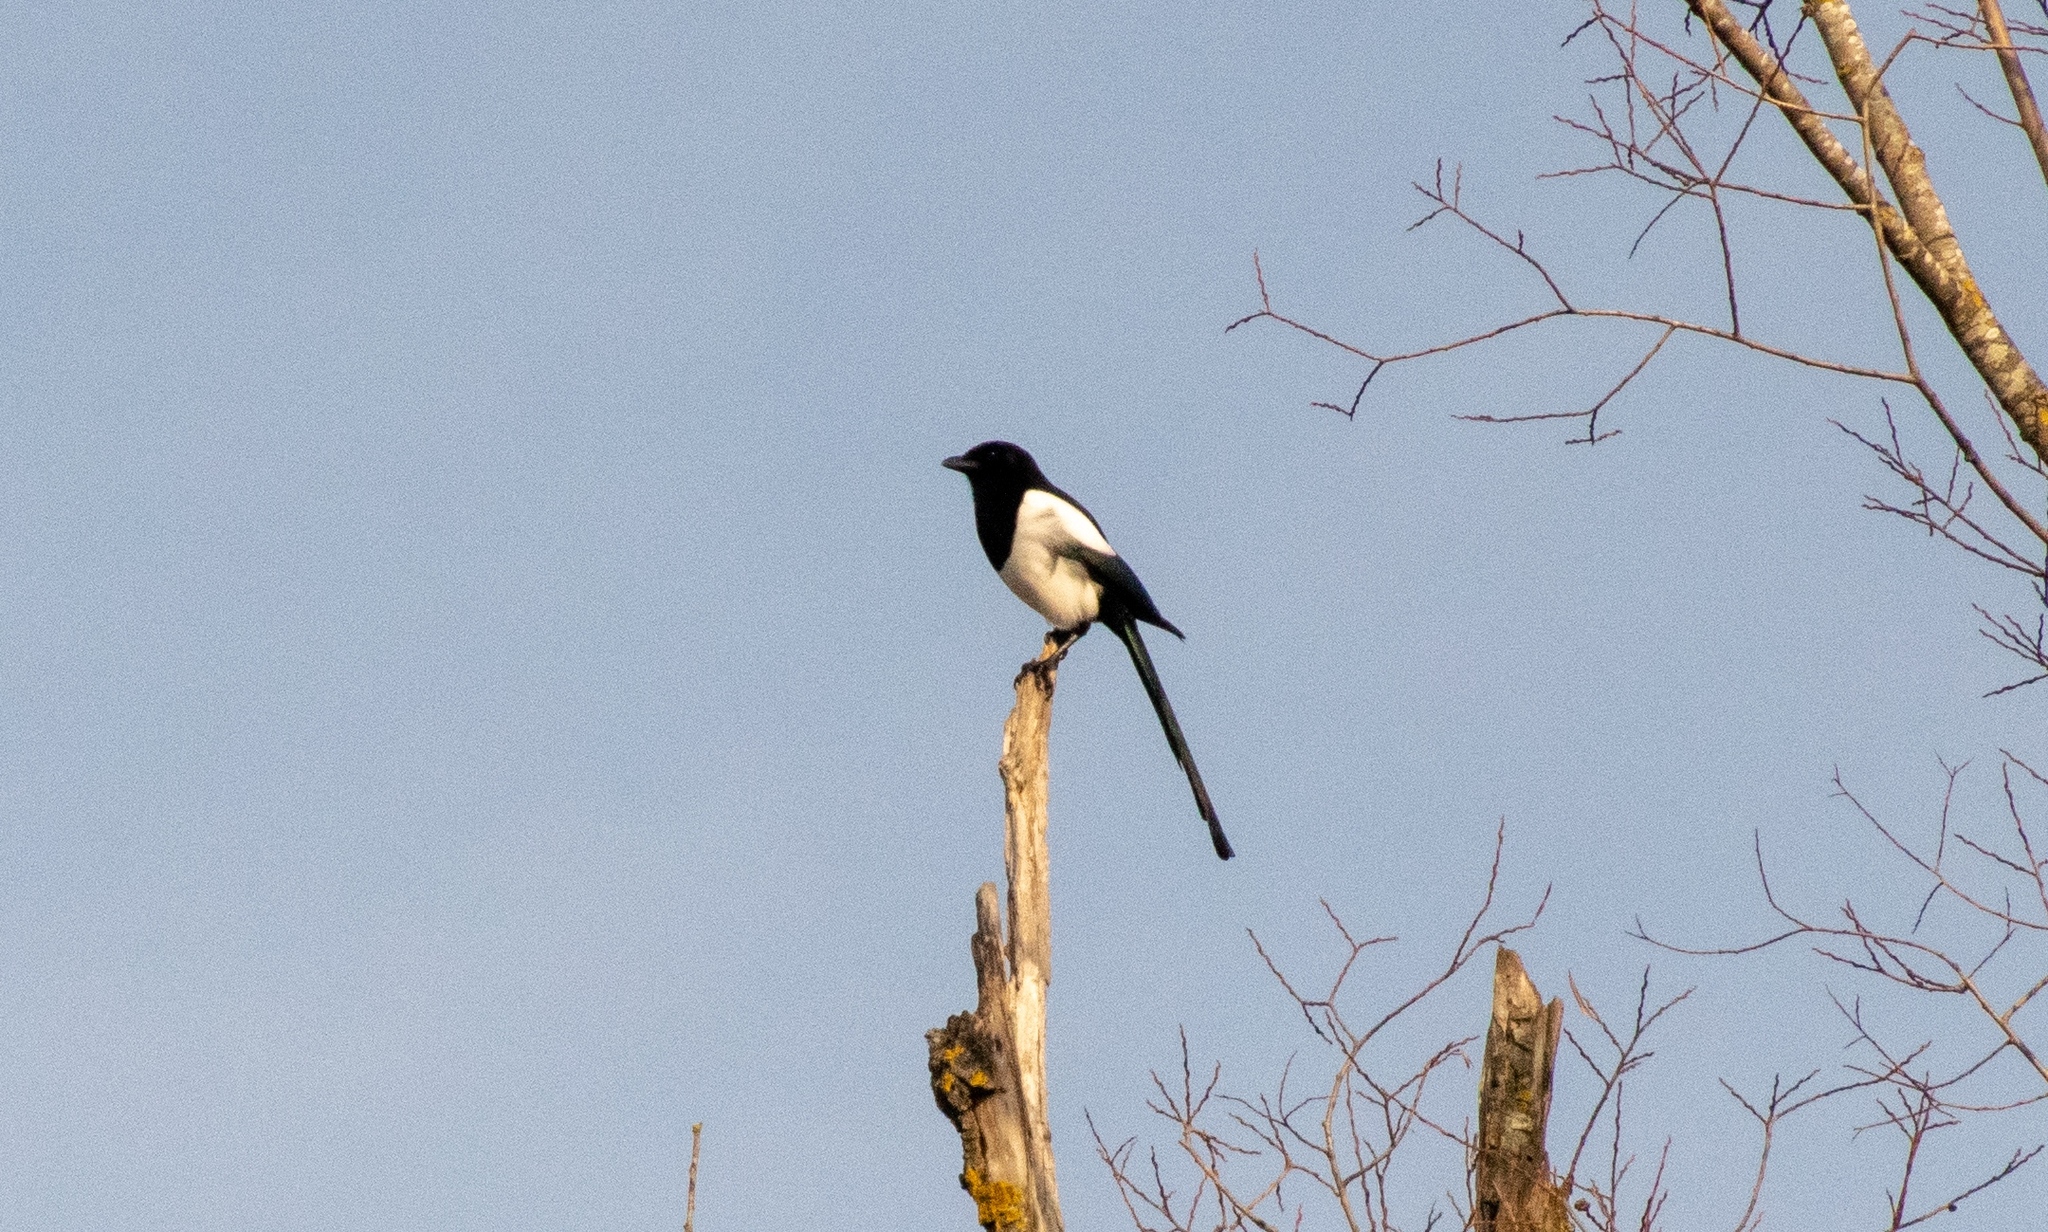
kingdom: Animalia
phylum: Chordata
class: Aves
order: Passeriformes
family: Corvidae
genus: Pica
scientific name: Pica pica
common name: Eurasian magpie
